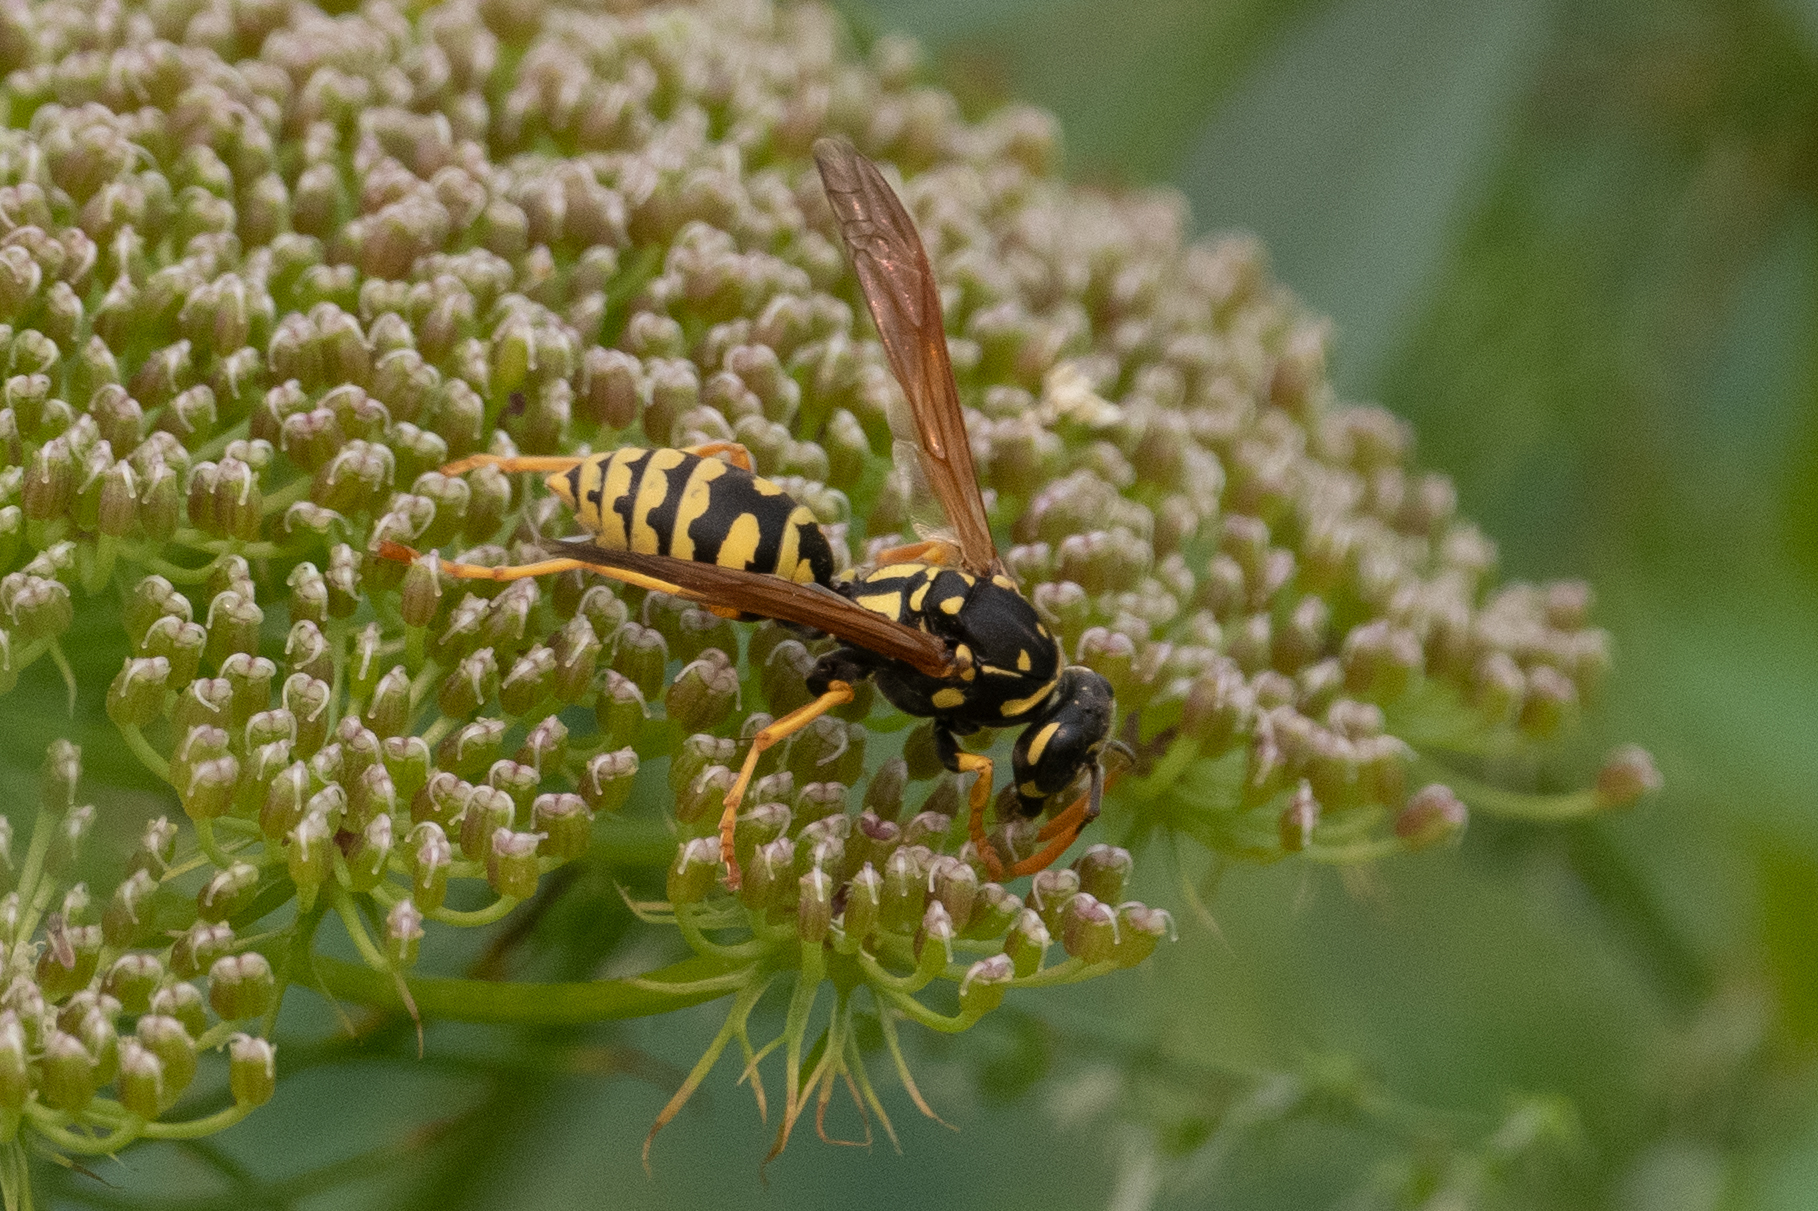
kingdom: Animalia
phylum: Arthropoda
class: Insecta
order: Hymenoptera
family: Eumenidae
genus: Polistes
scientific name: Polistes dominula
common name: Paper wasp
